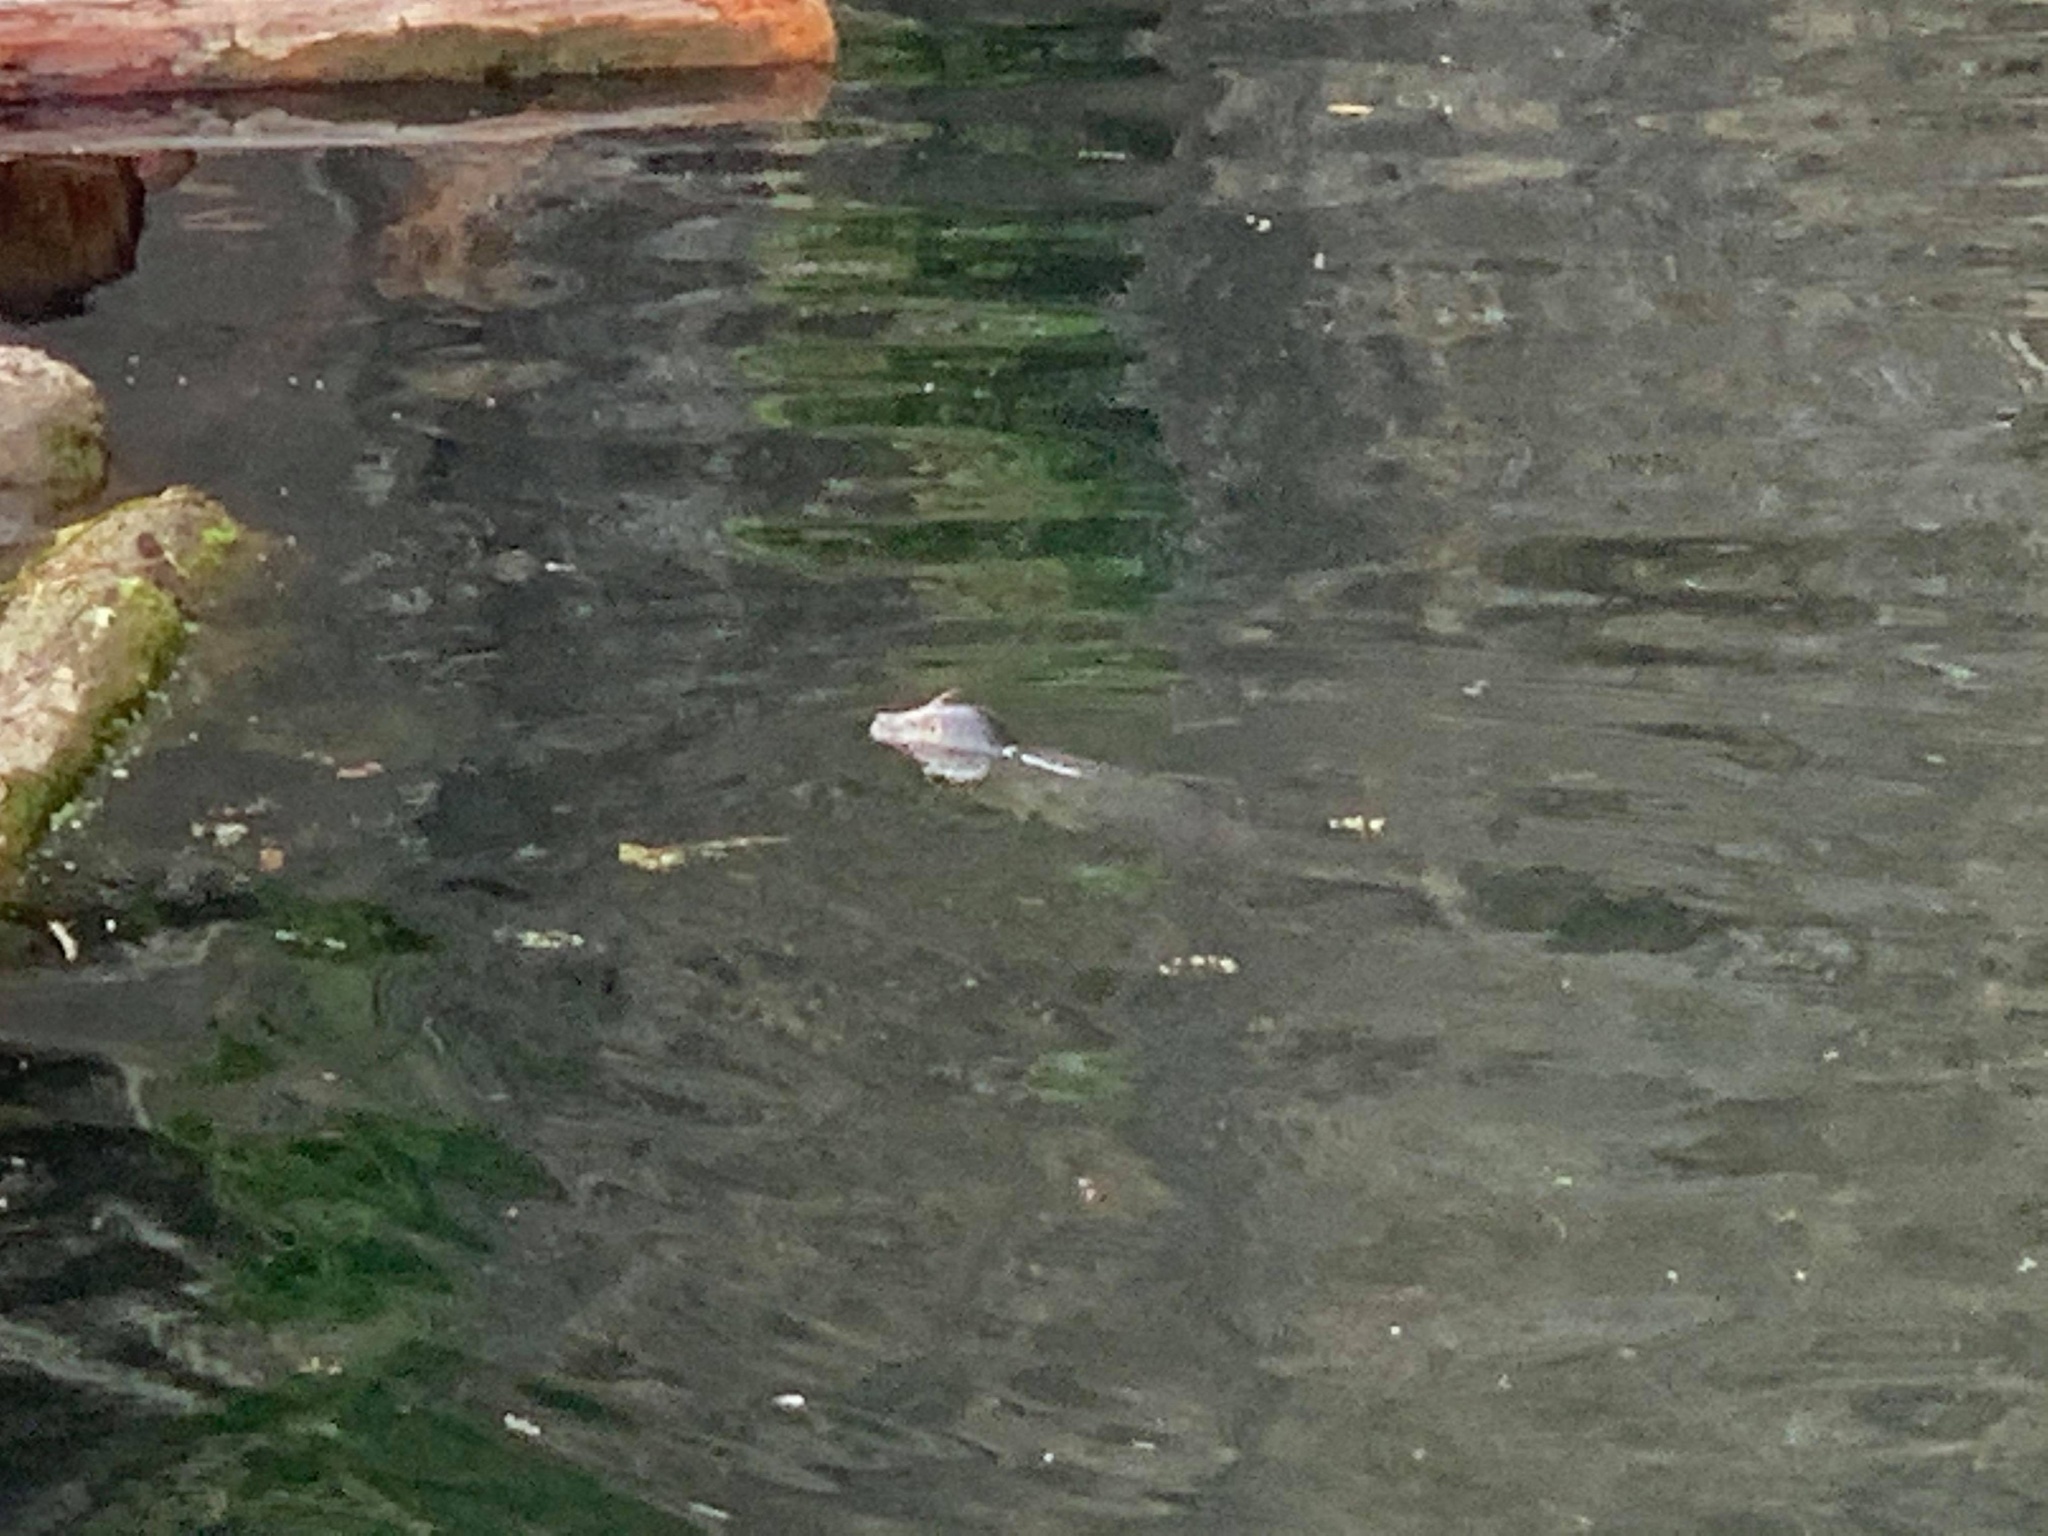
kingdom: Animalia
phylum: Chordata
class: Mammalia
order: Carnivora
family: Phocidae
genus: Phoca
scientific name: Phoca vitulina
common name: Harbor seal
